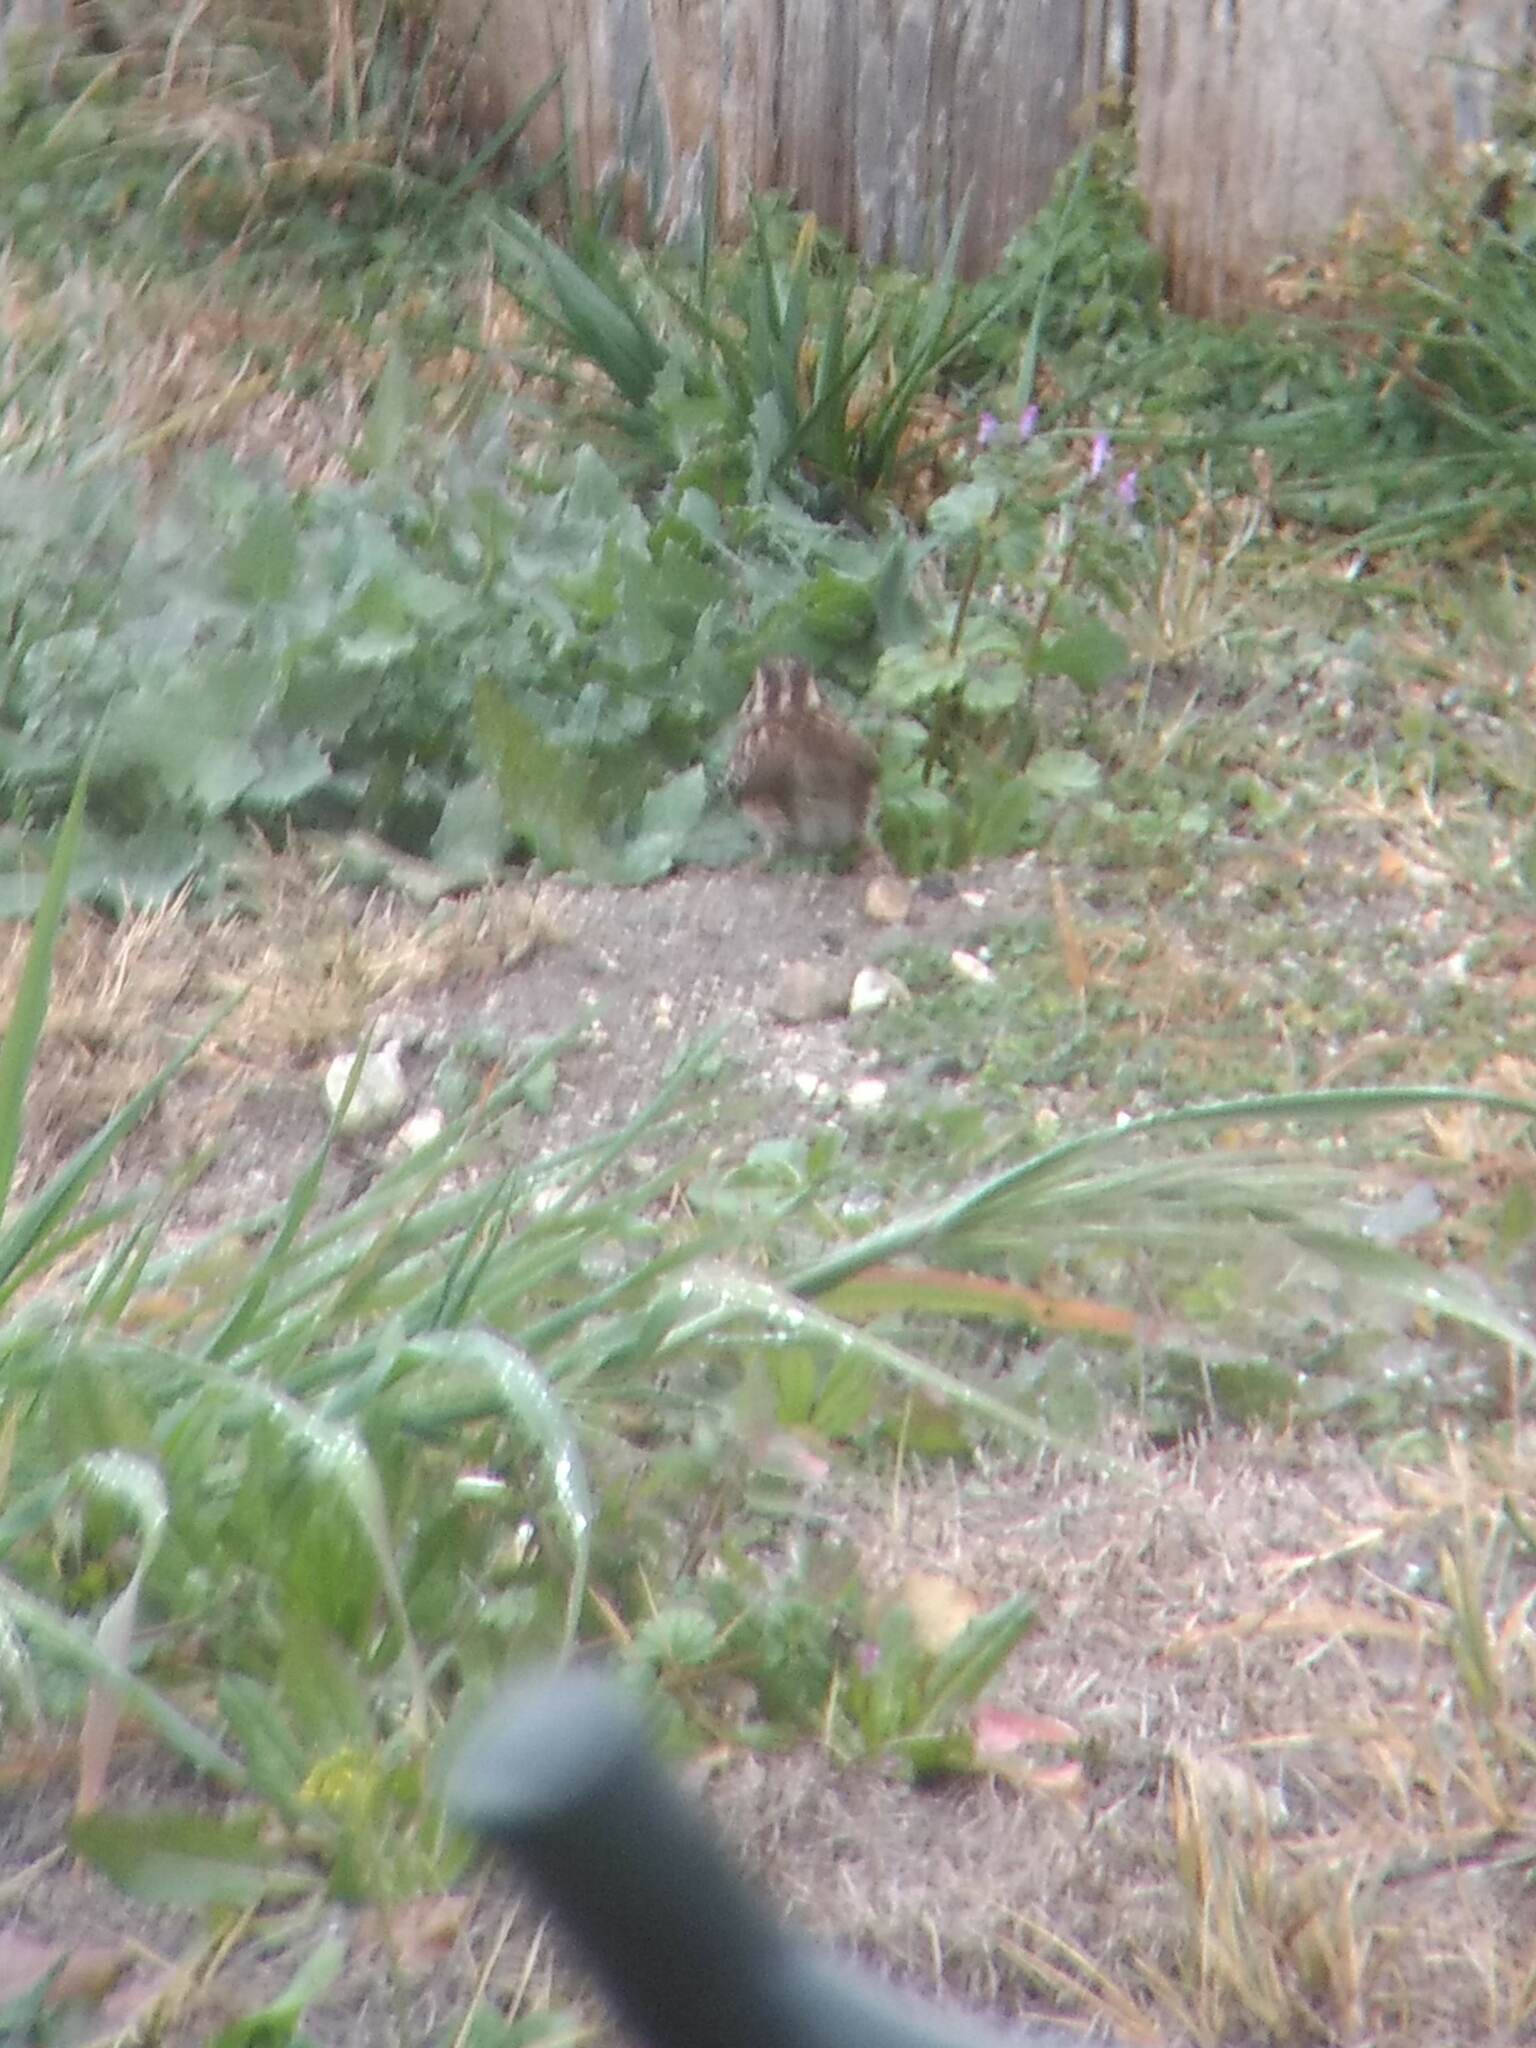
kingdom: Animalia
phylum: Chordata
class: Aves
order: Passeriformes
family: Passerellidae
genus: Zonotrichia
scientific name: Zonotrichia albicollis
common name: White-throated sparrow
